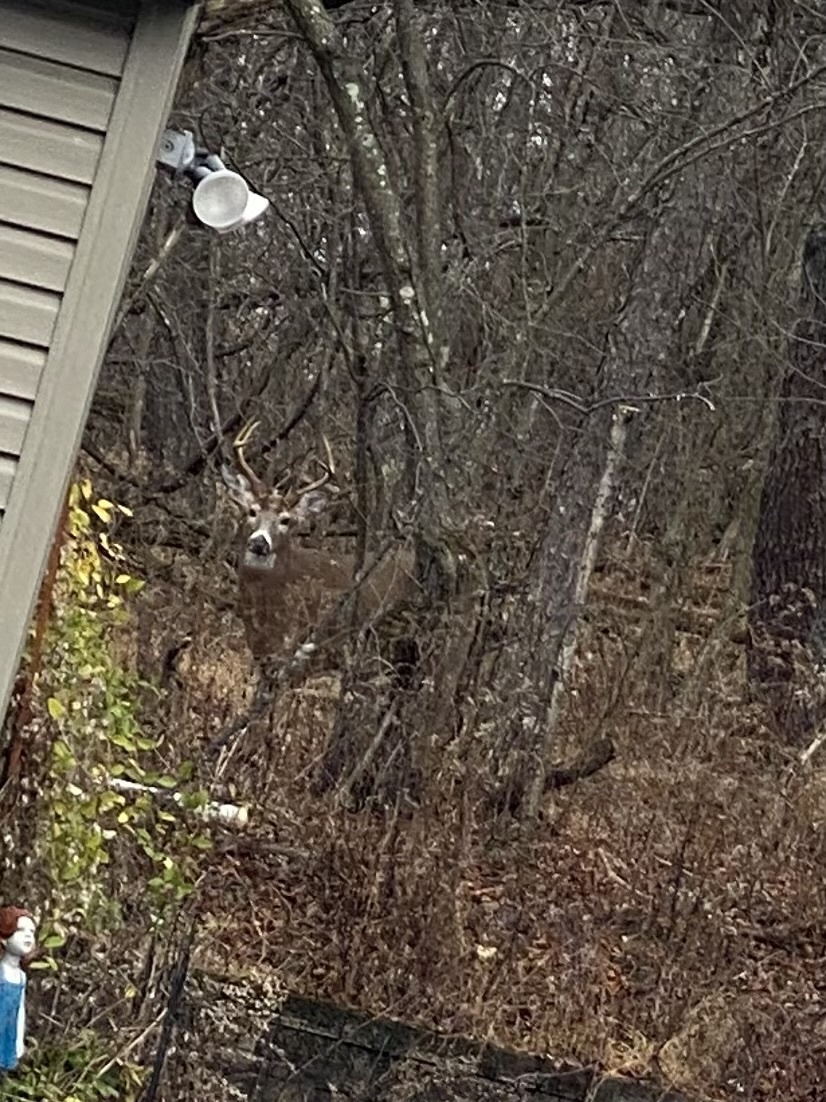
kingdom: Animalia
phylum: Chordata
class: Mammalia
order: Artiodactyla
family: Cervidae
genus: Odocoileus
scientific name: Odocoileus virginianus
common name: White-tailed deer
